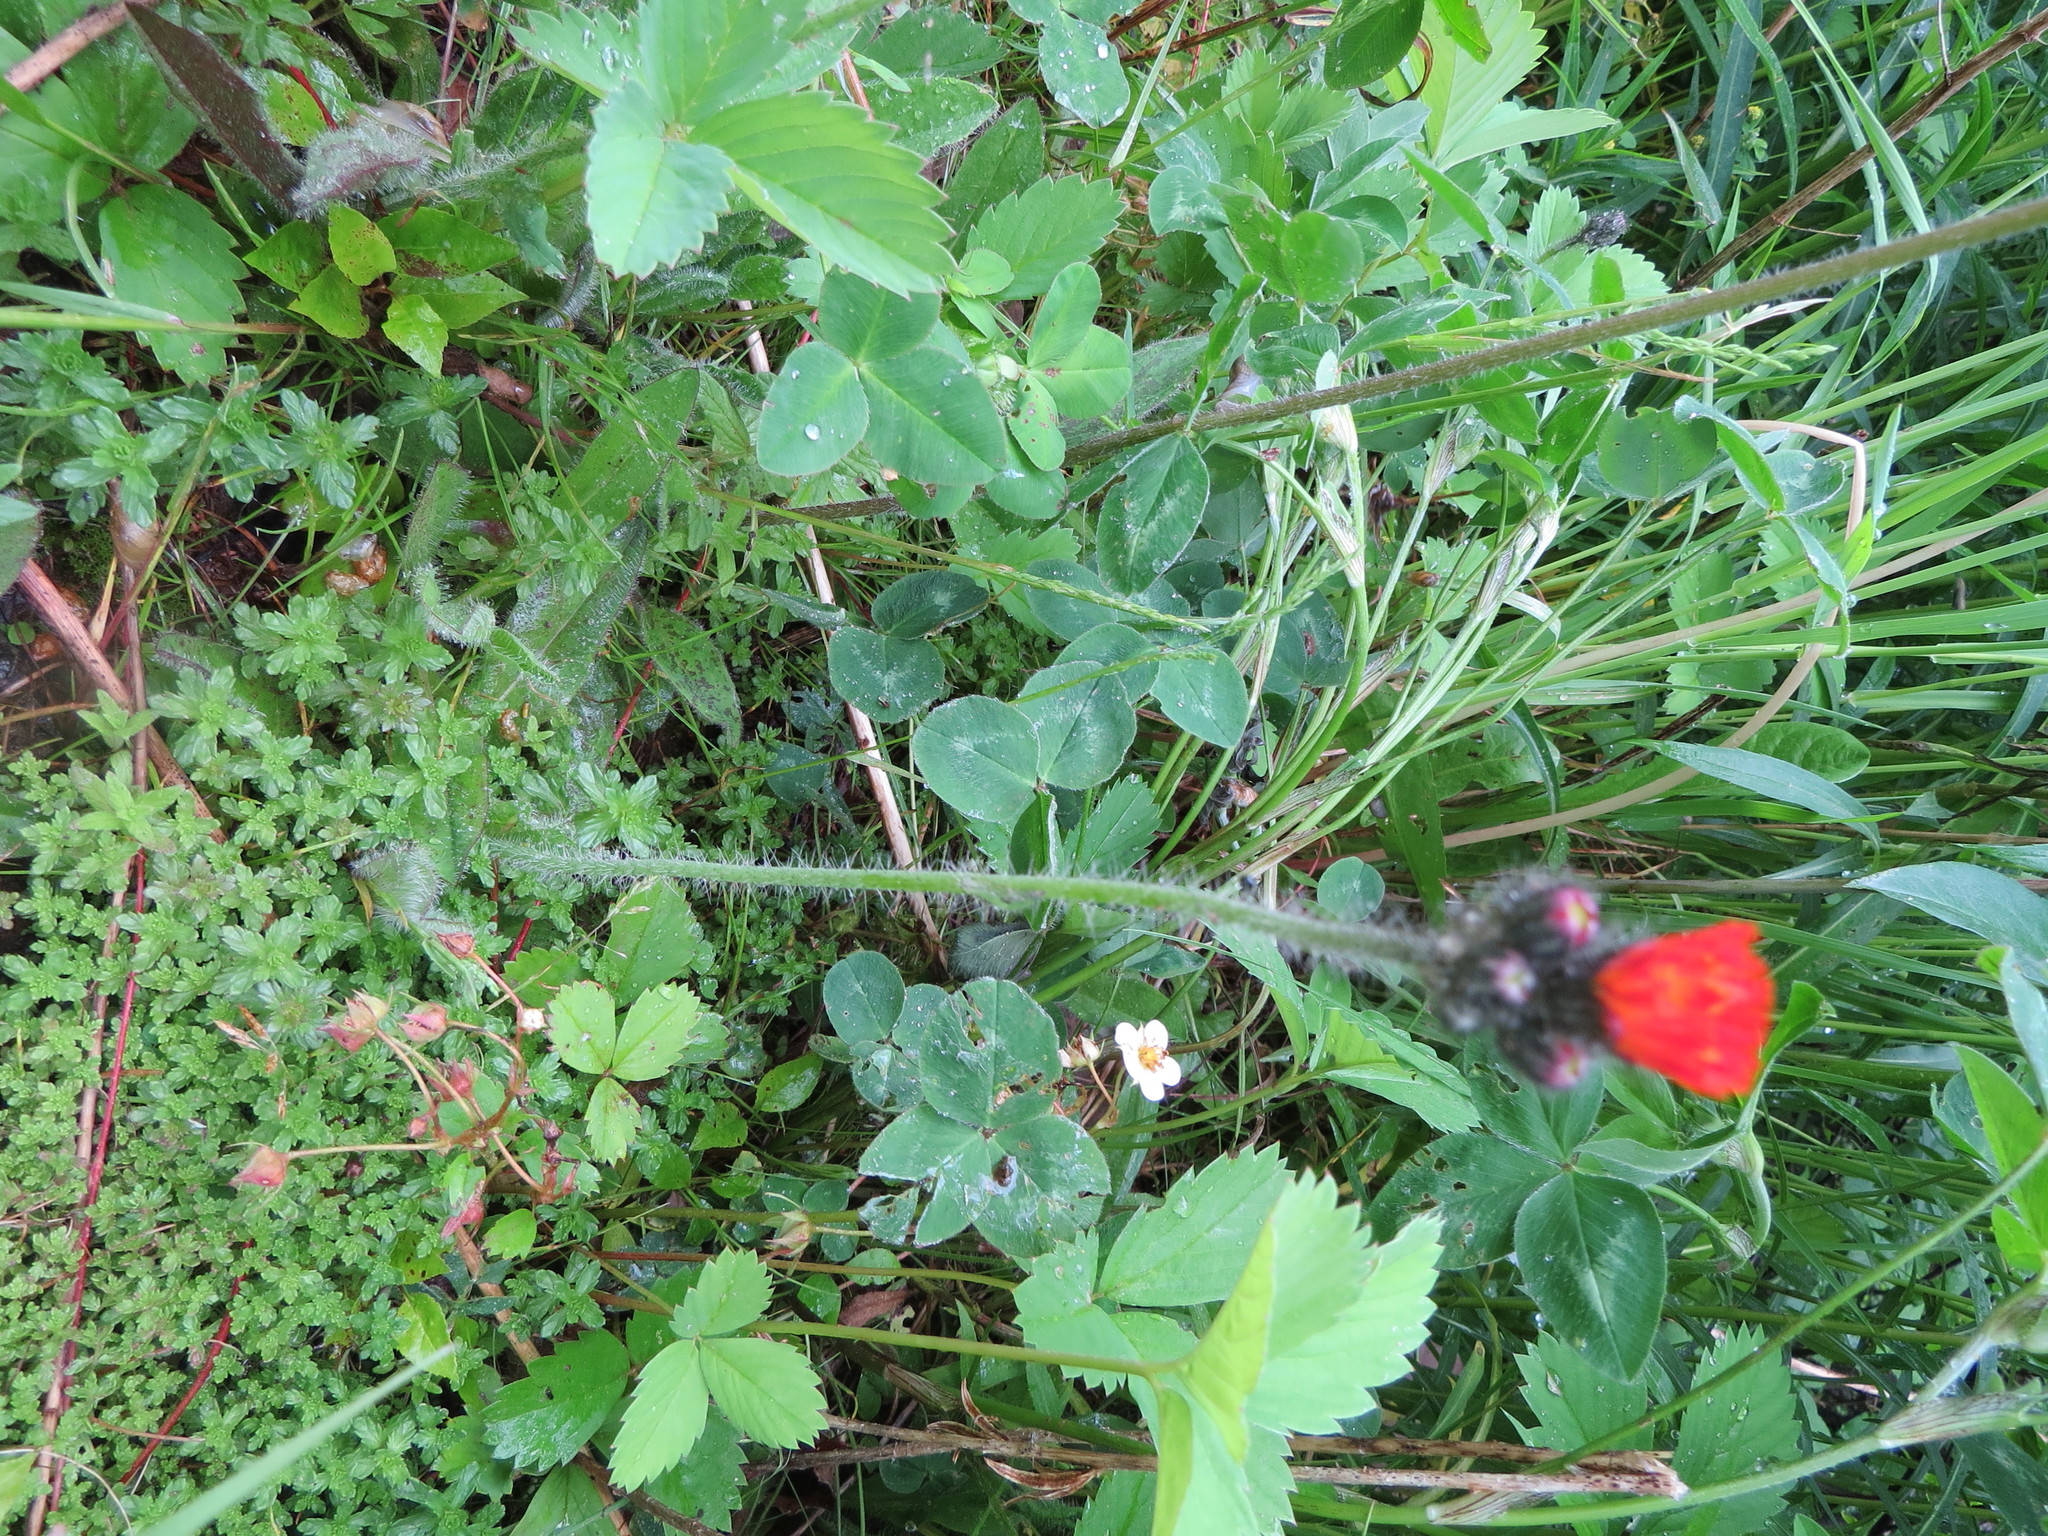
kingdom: Plantae
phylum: Tracheophyta
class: Magnoliopsida
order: Asterales
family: Asteraceae
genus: Pilosella
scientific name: Pilosella aurantiaca
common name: Fox-and-cubs
